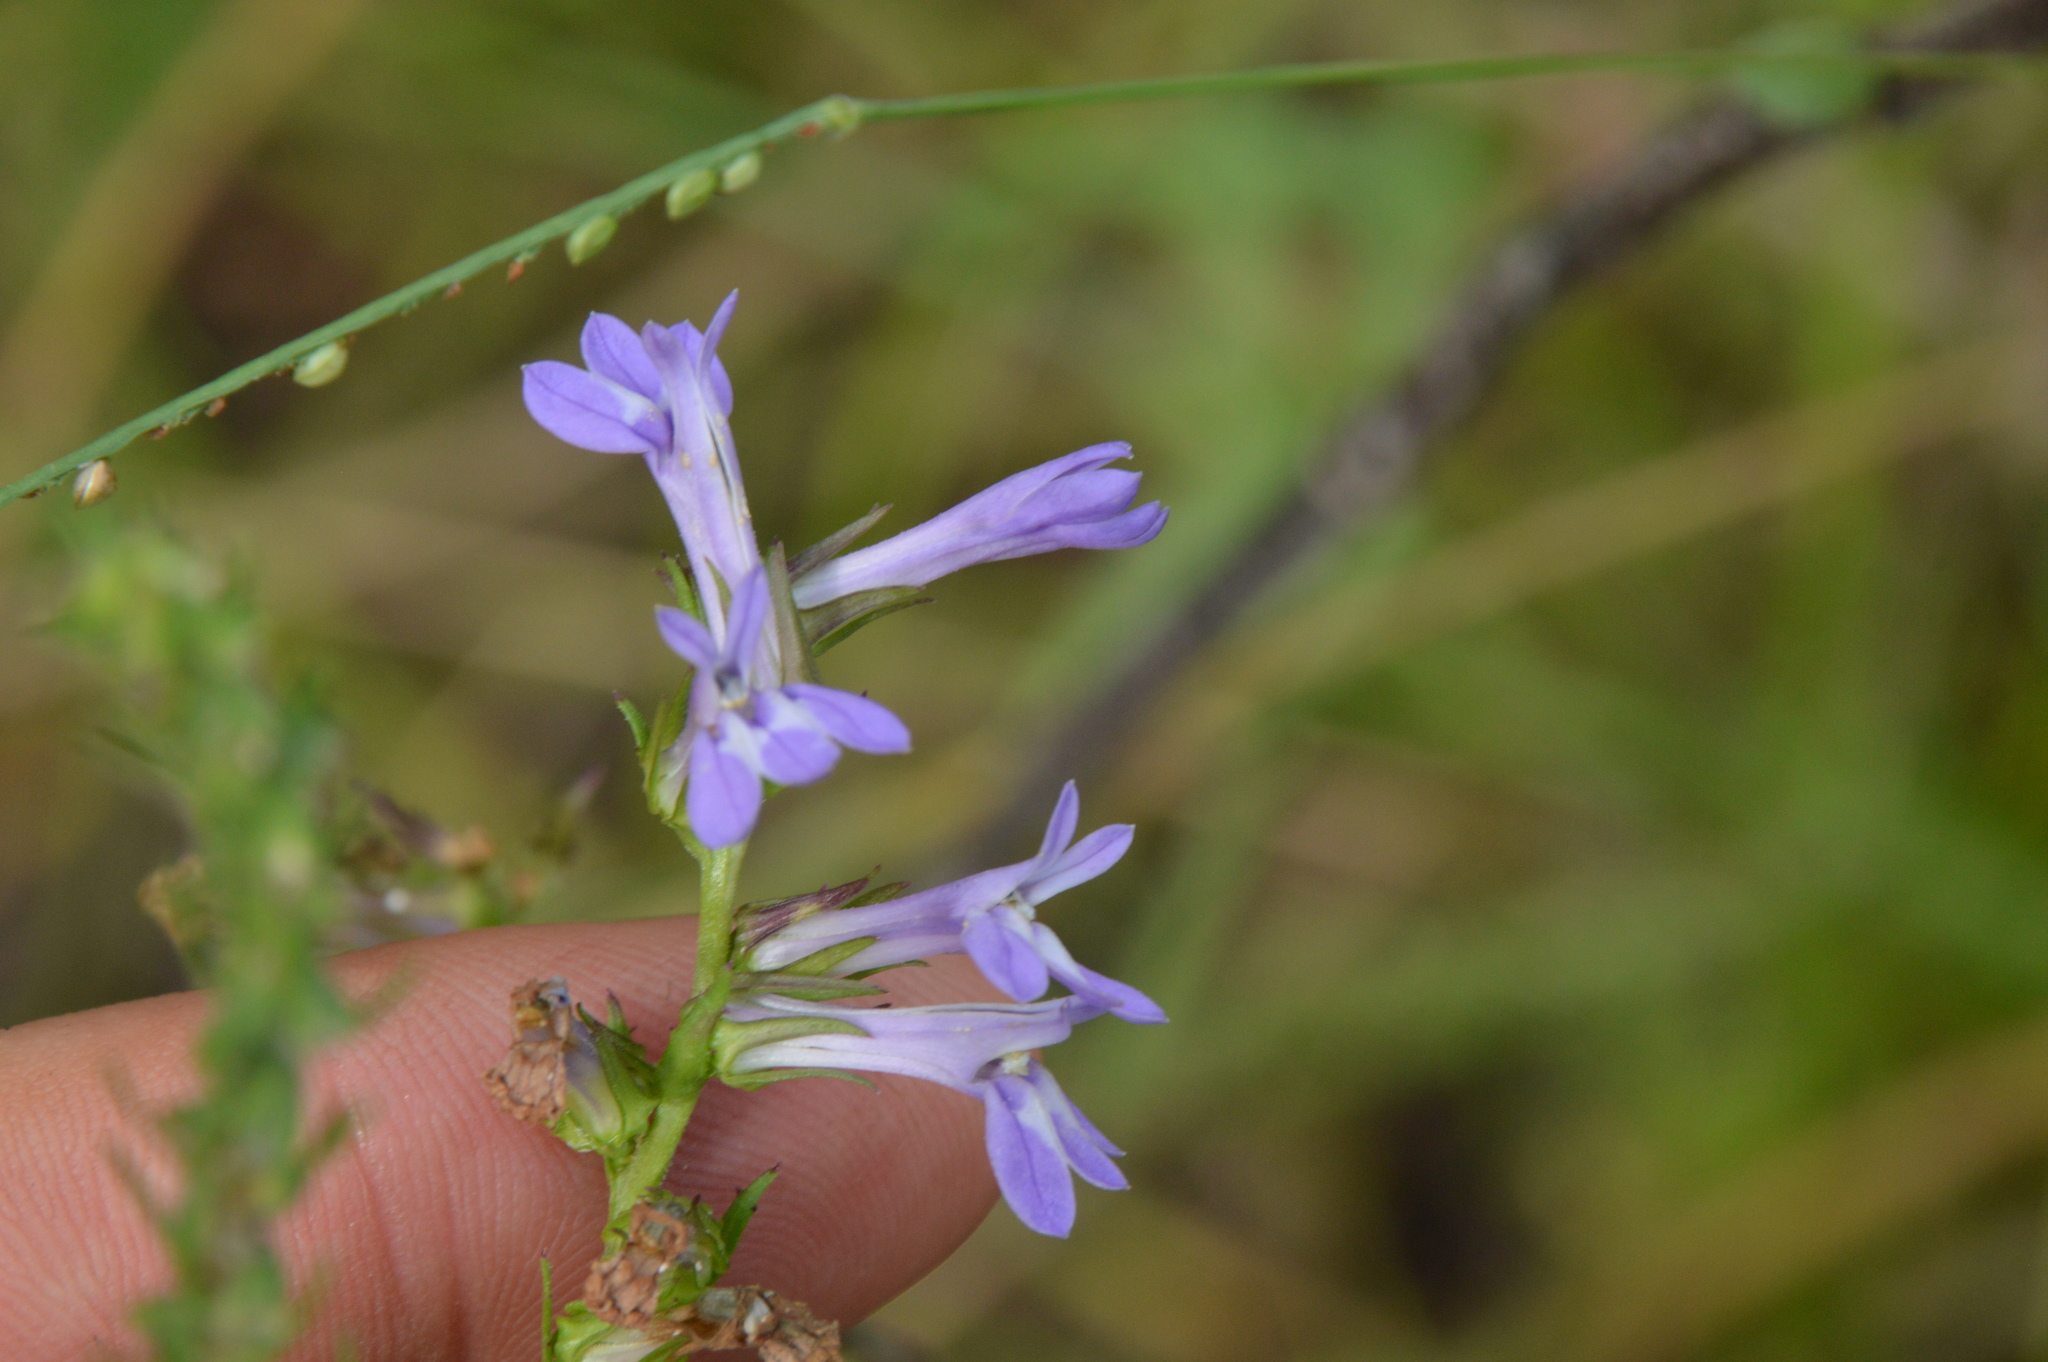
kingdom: Plantae
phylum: Tracheophyta
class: Magnoliopsida
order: Asterales
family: Campanulaceae
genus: Lobelia
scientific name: Lobelia puberula
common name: Purple dewdrop
